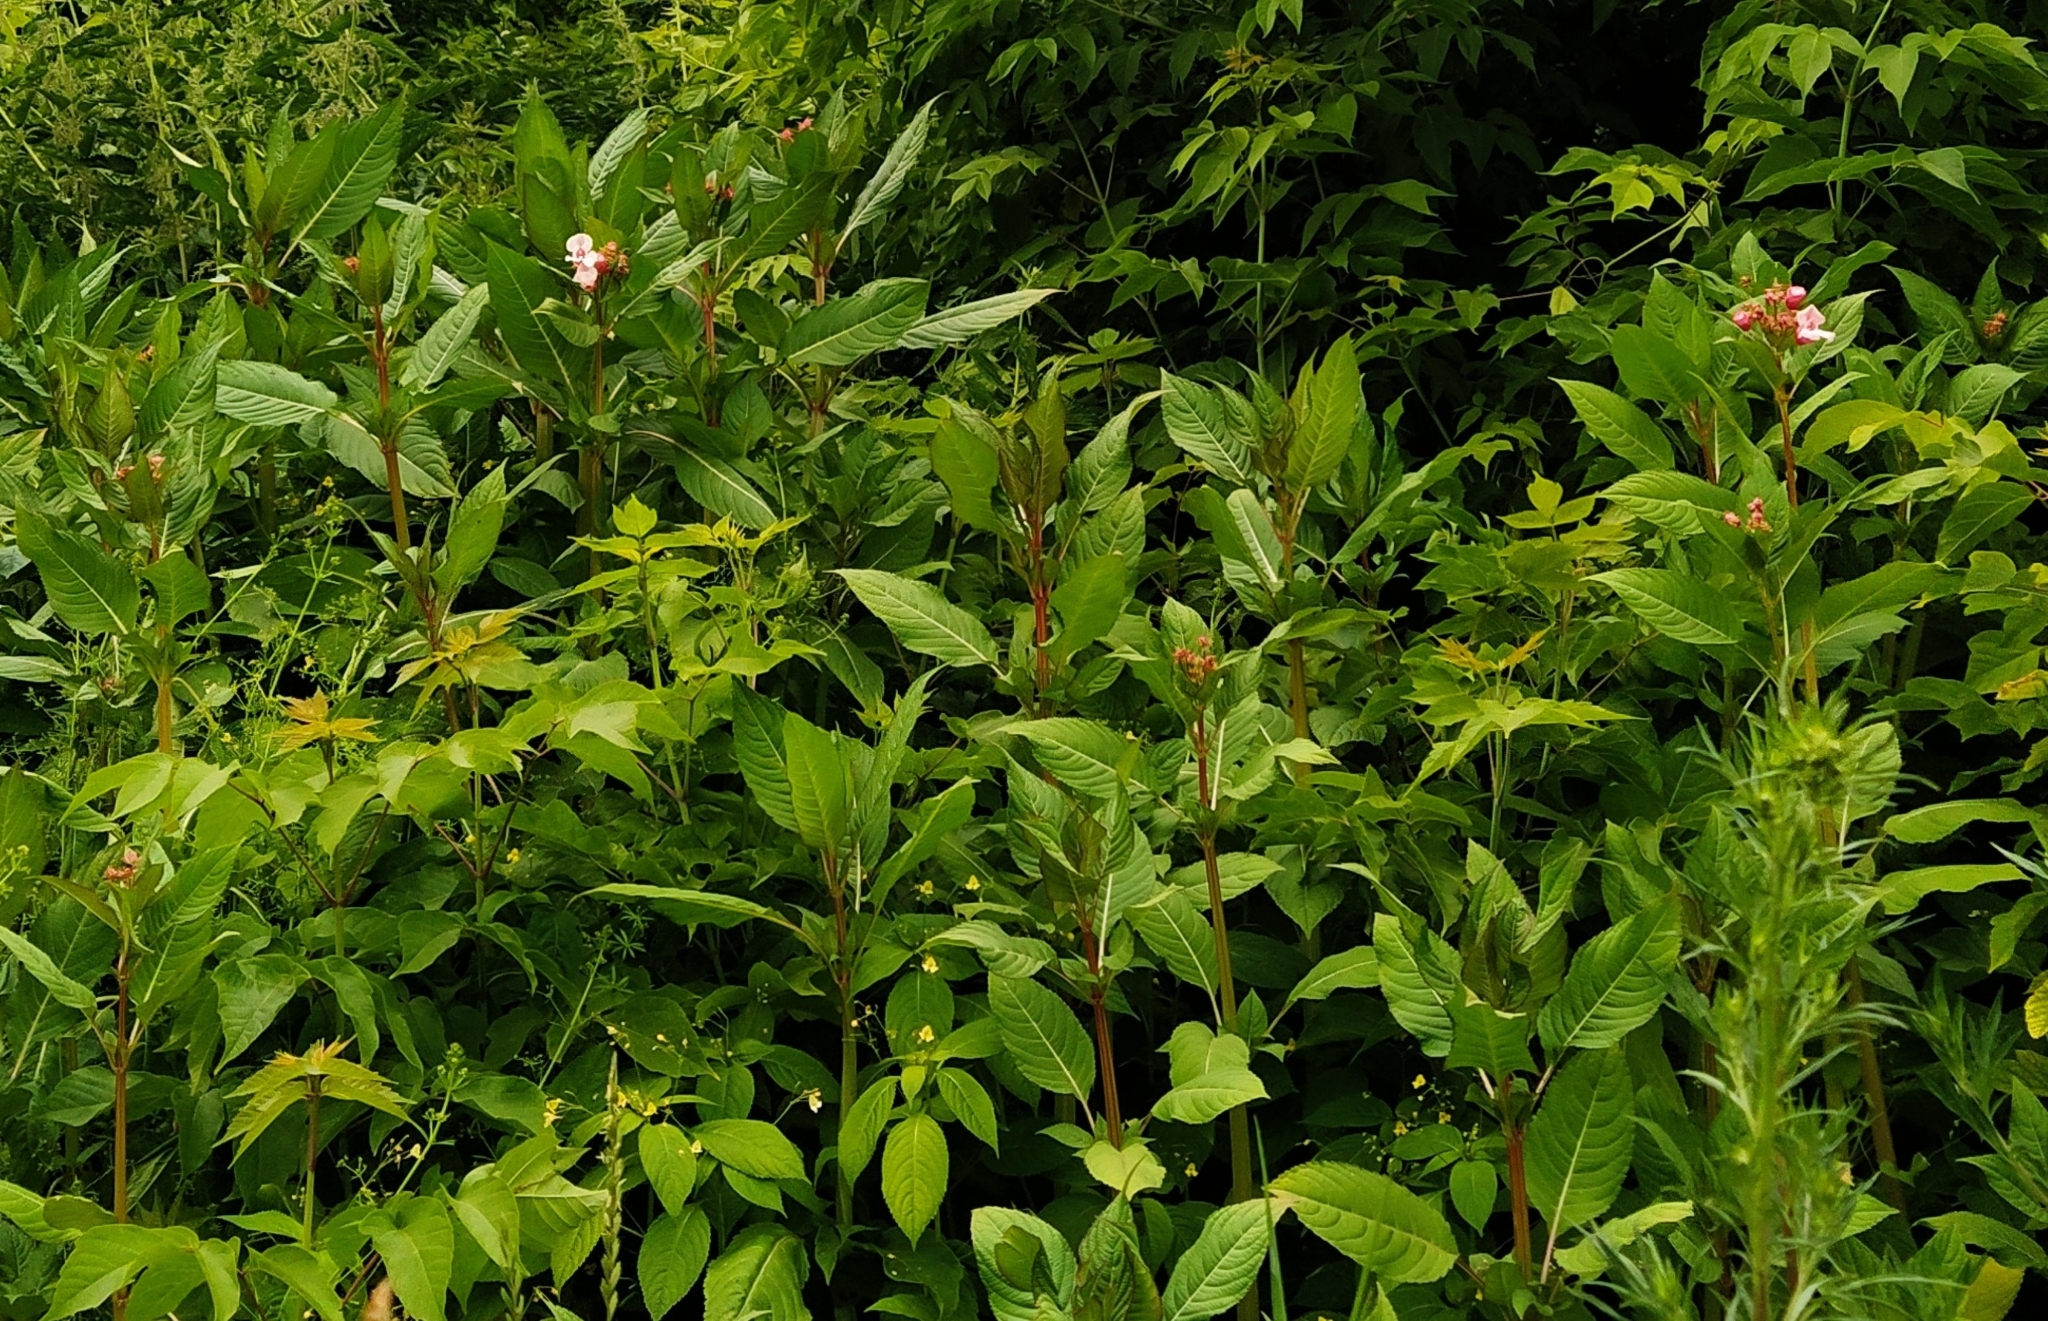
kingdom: Plantae
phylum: Tracheophyta
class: Magnoliopsida
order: Ericales
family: Balsaminaceae
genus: Impatiens
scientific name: Impatiens glandulifera
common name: Himalayan balsam
